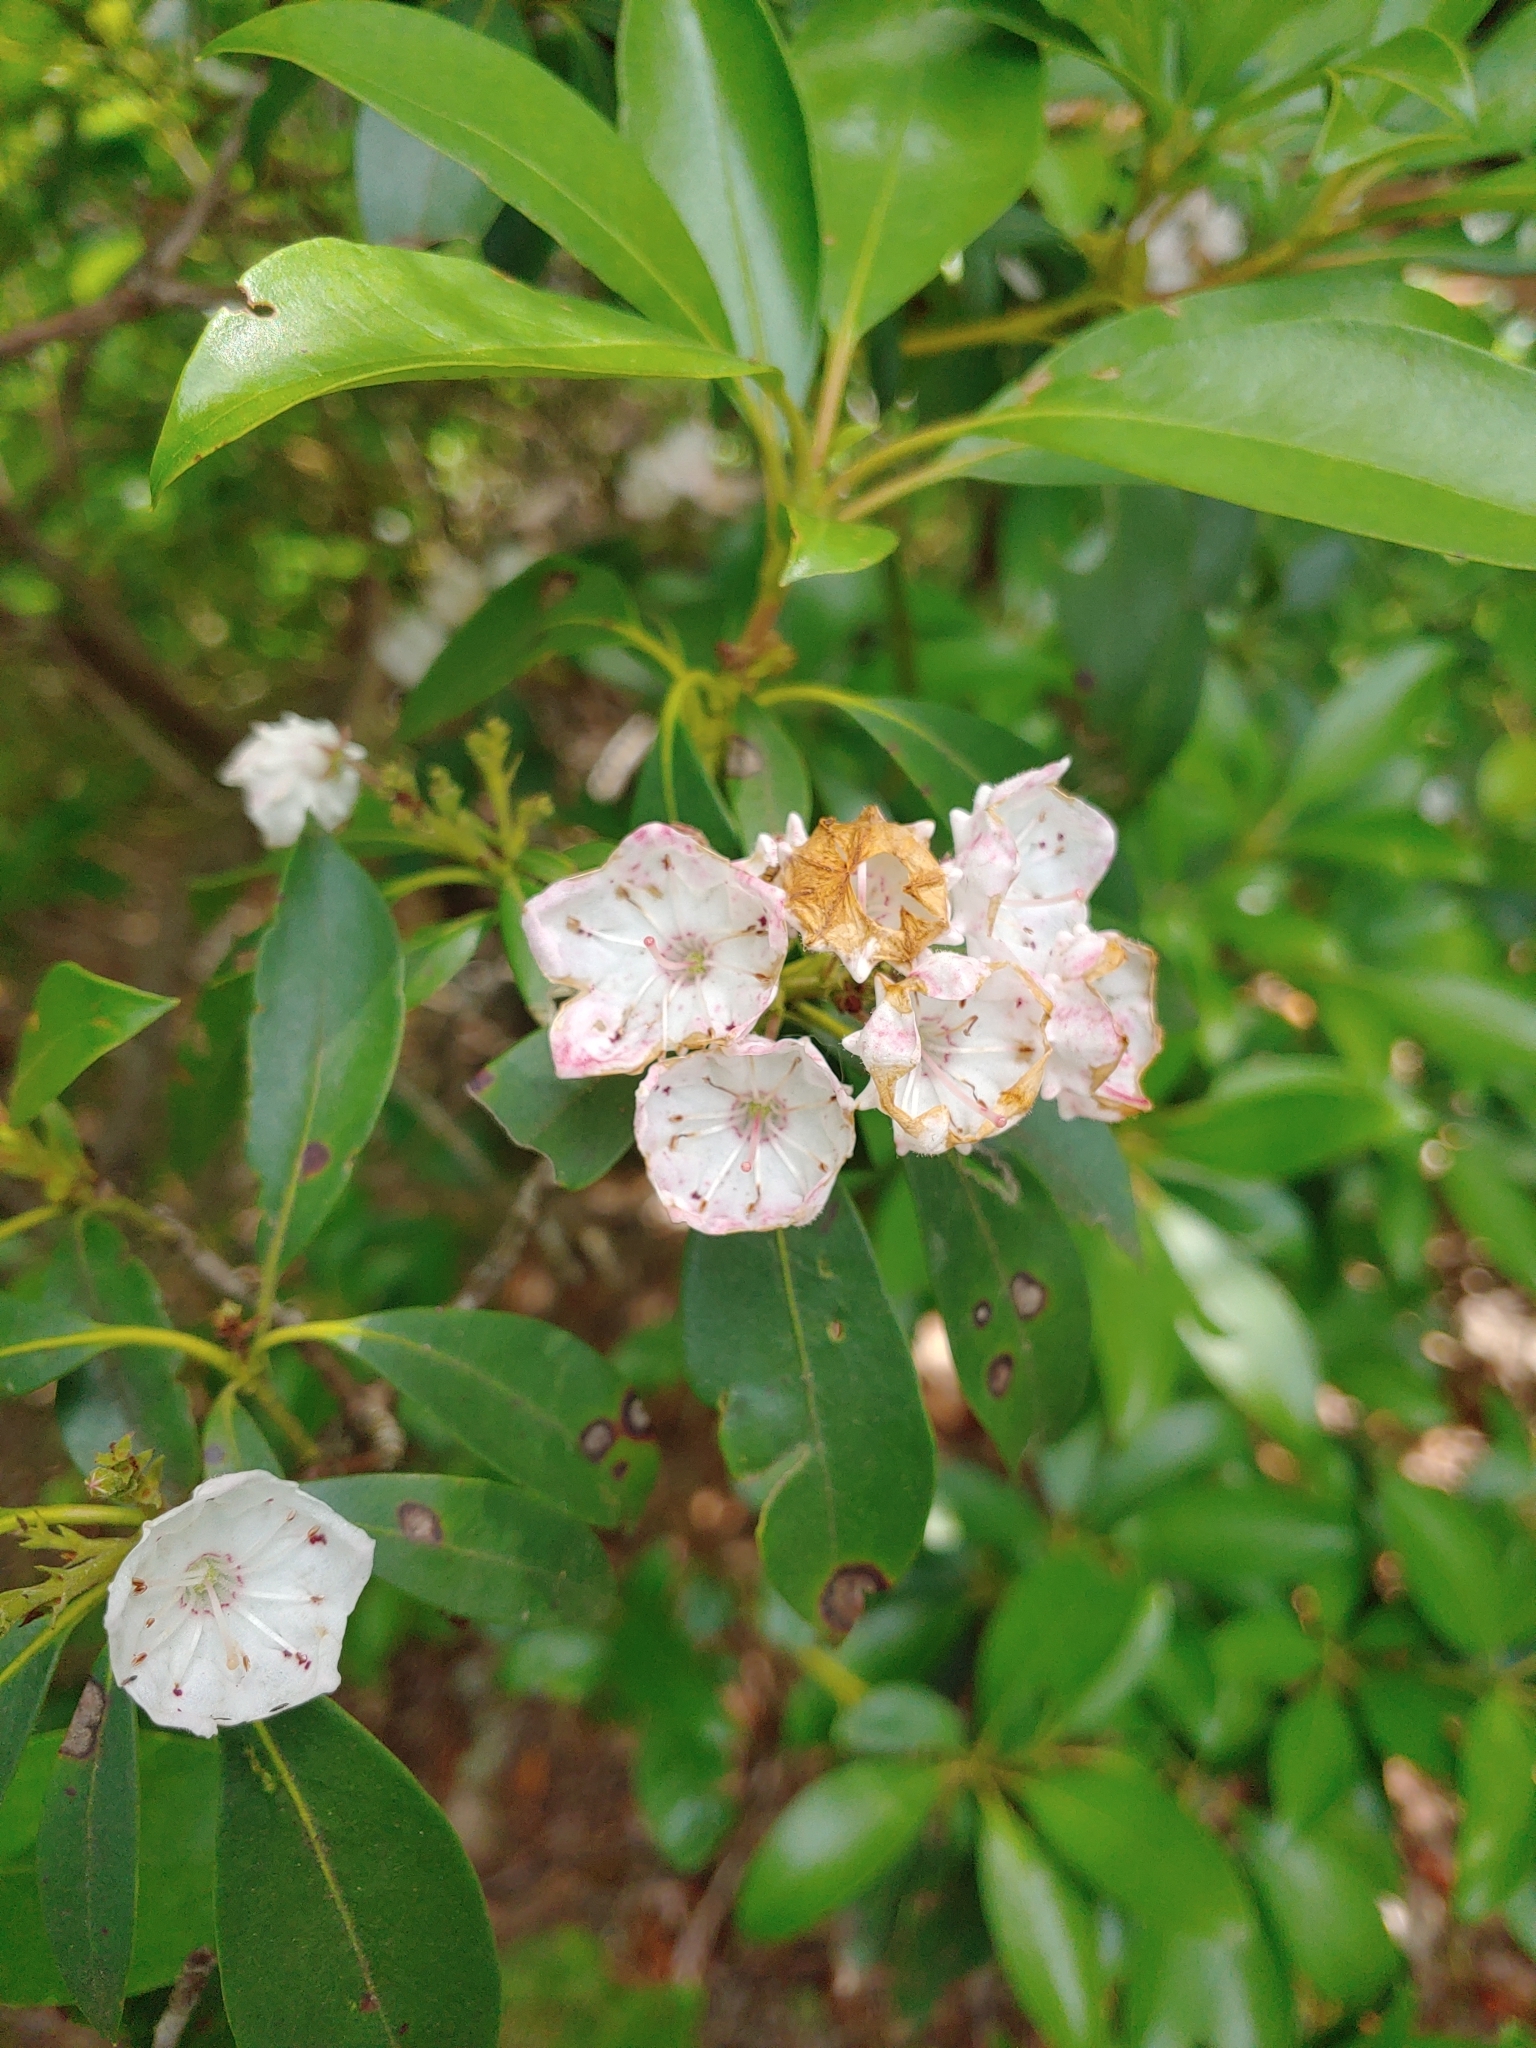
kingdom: Plantae
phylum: Tracheophyta
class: Magnoliopsida
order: Ericales
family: Ericaceae
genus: Kalmia
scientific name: Kalmia latifolia
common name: Mountain-laurel
